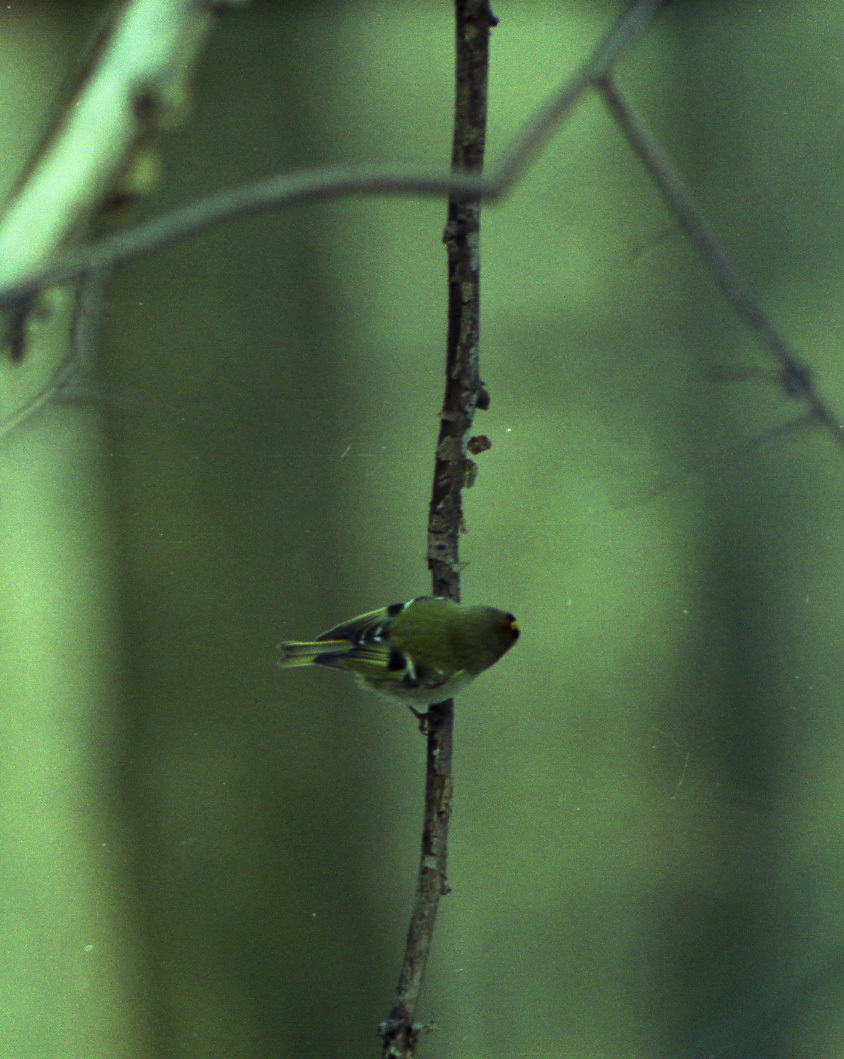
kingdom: Animalia
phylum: Chordata
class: Aves
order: Passeriformes
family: Regulidae
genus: Regulus
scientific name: Regulus regulus
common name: Goldcrest
